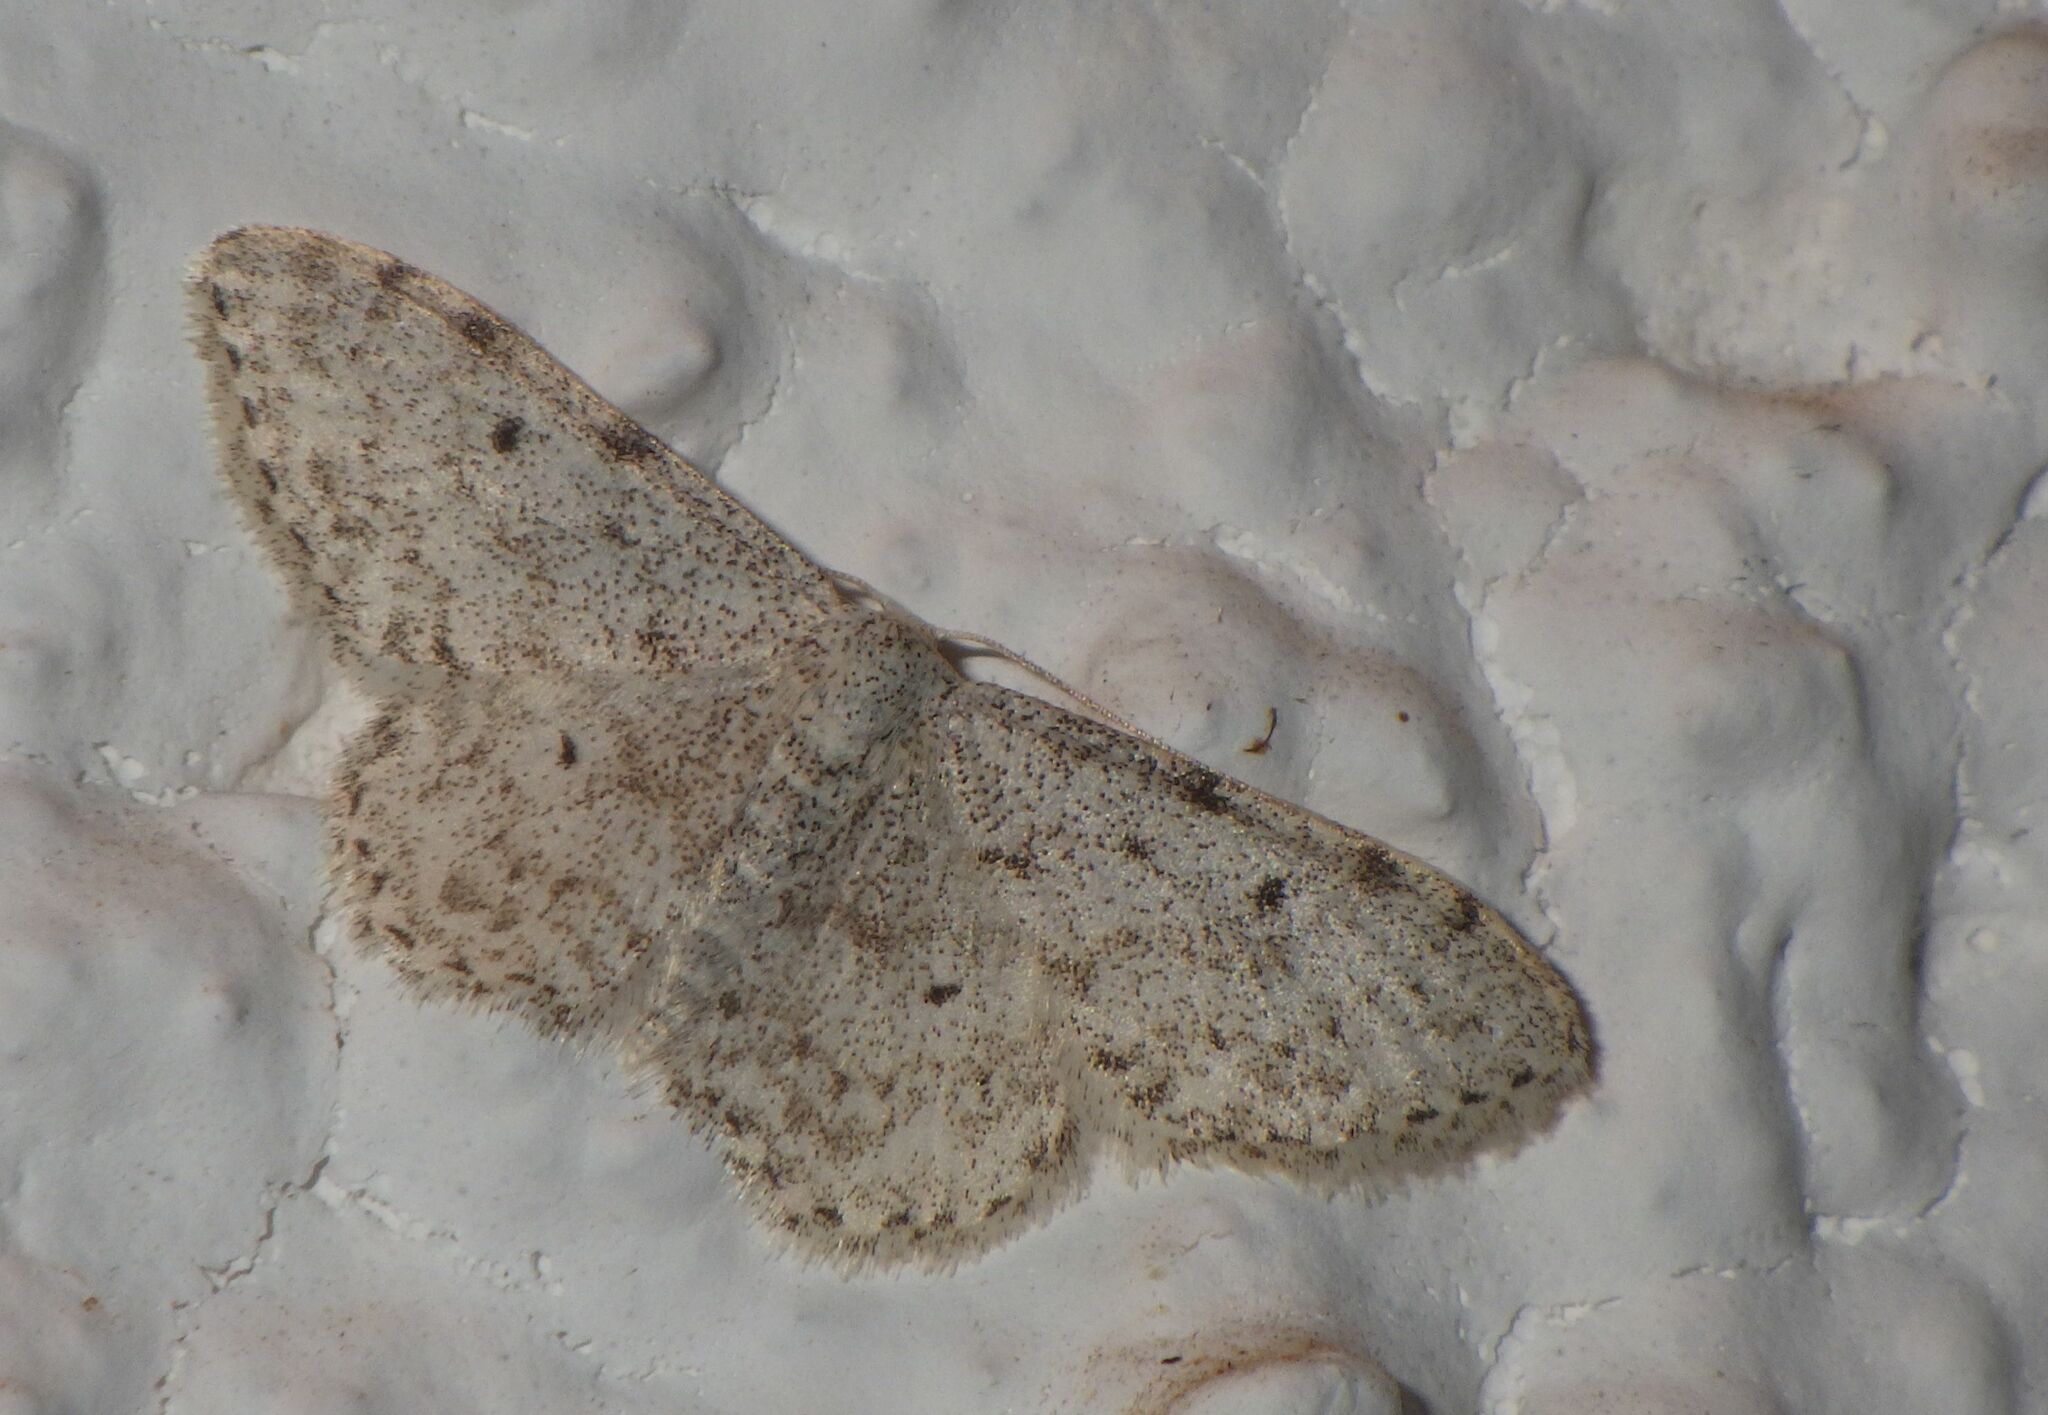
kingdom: Animalia
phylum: Arthropoda
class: Insecta
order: Lepidoptera
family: Geometridae
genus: Idaea
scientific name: Idaea camparia
